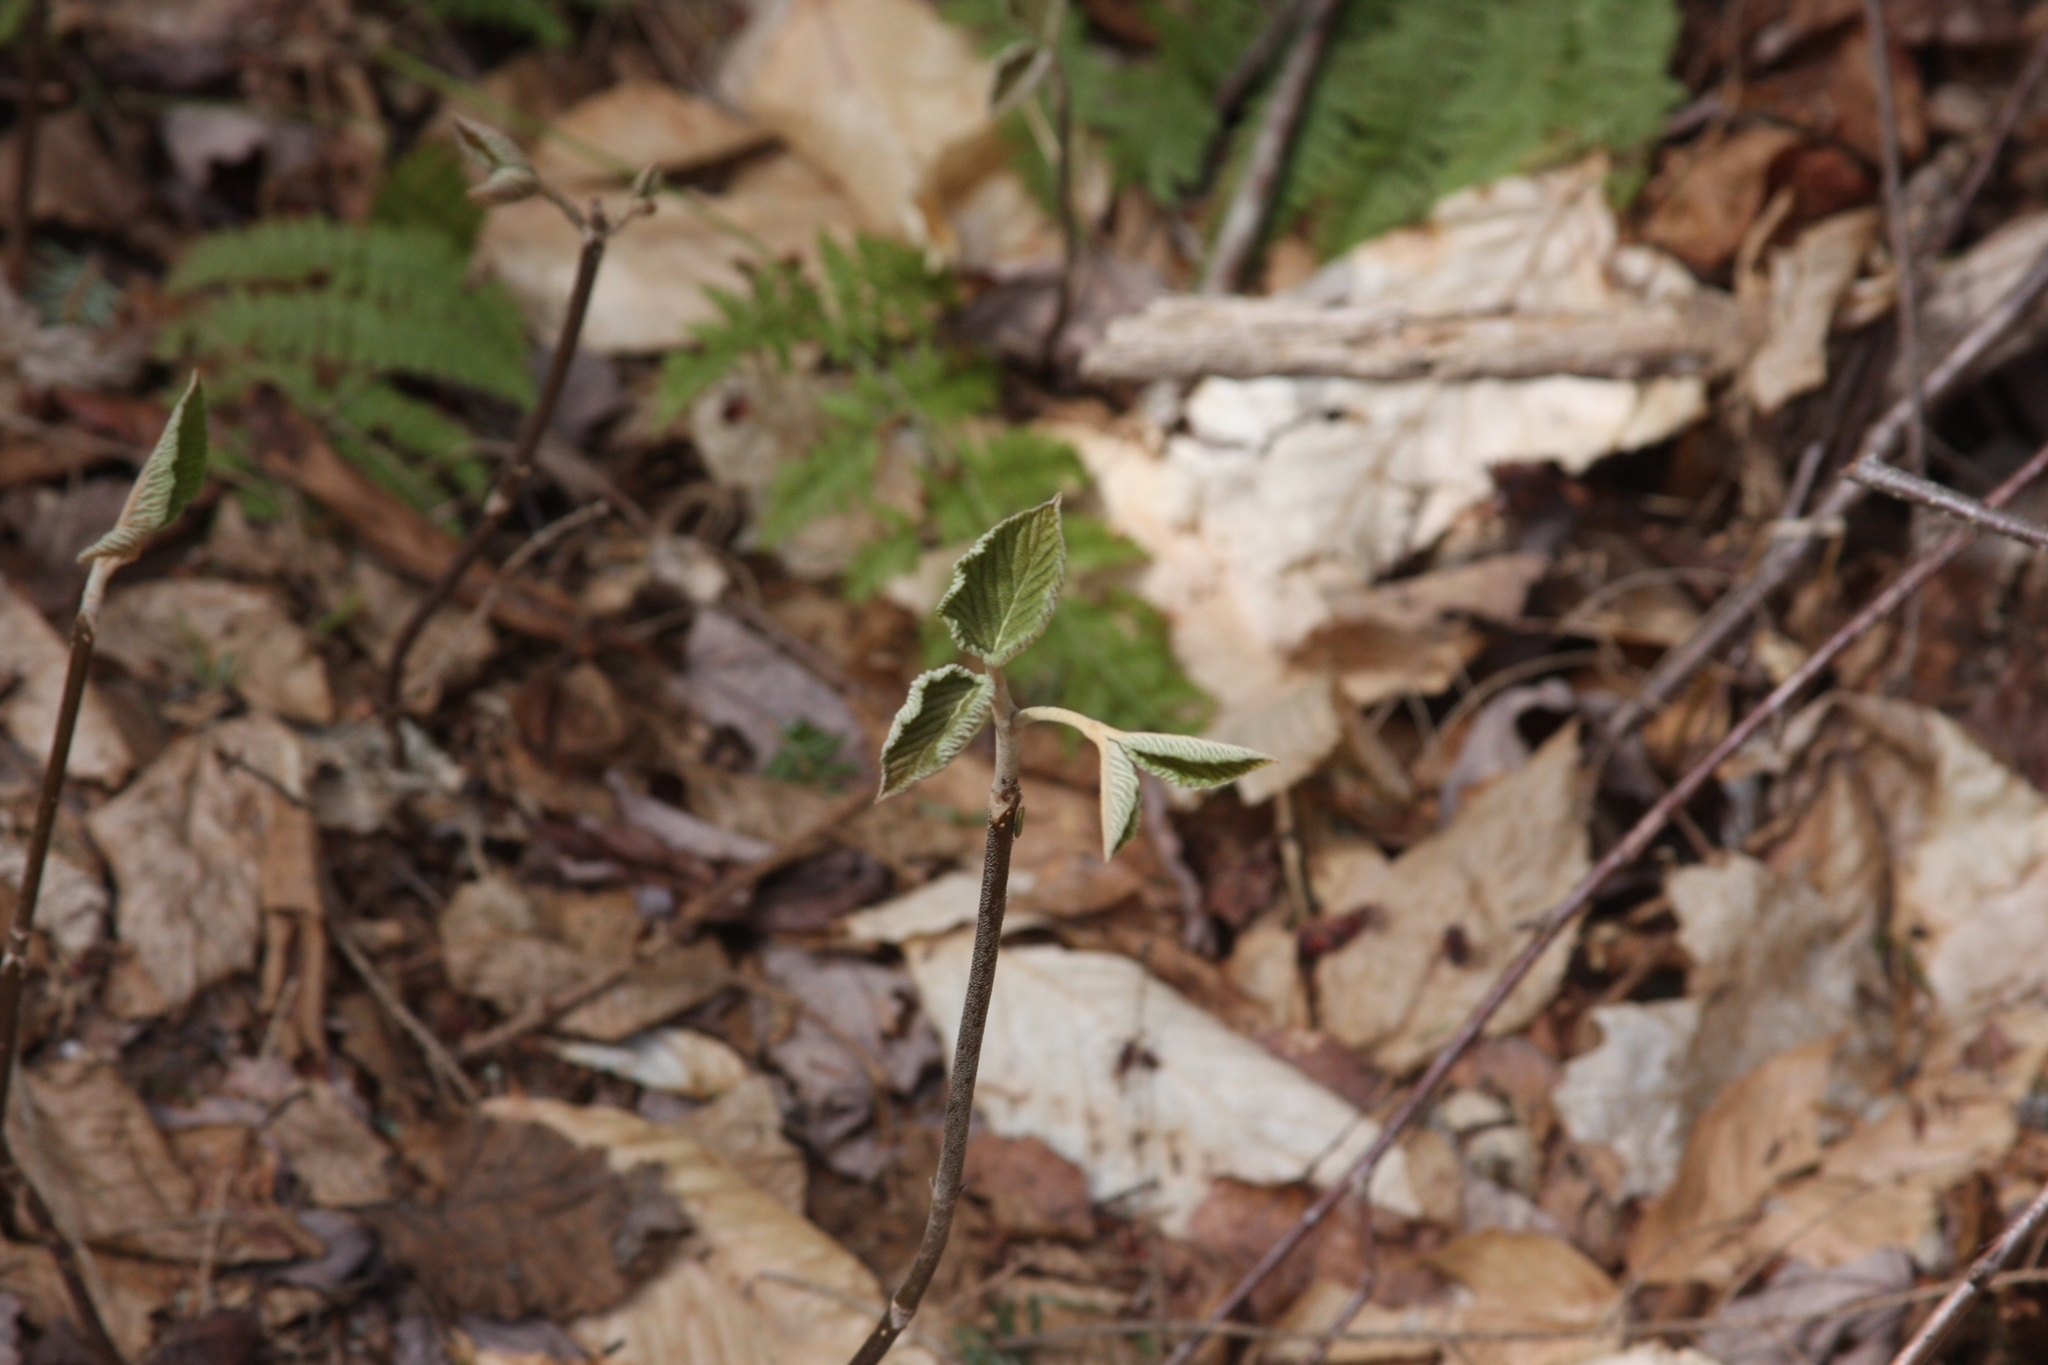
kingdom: Plantae
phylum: Tracheophyta
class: Magnoliopsida
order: Dipsacales
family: Viburnaceae
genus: Viburnum
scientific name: Viburnum lantanoides
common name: Hobblebush
